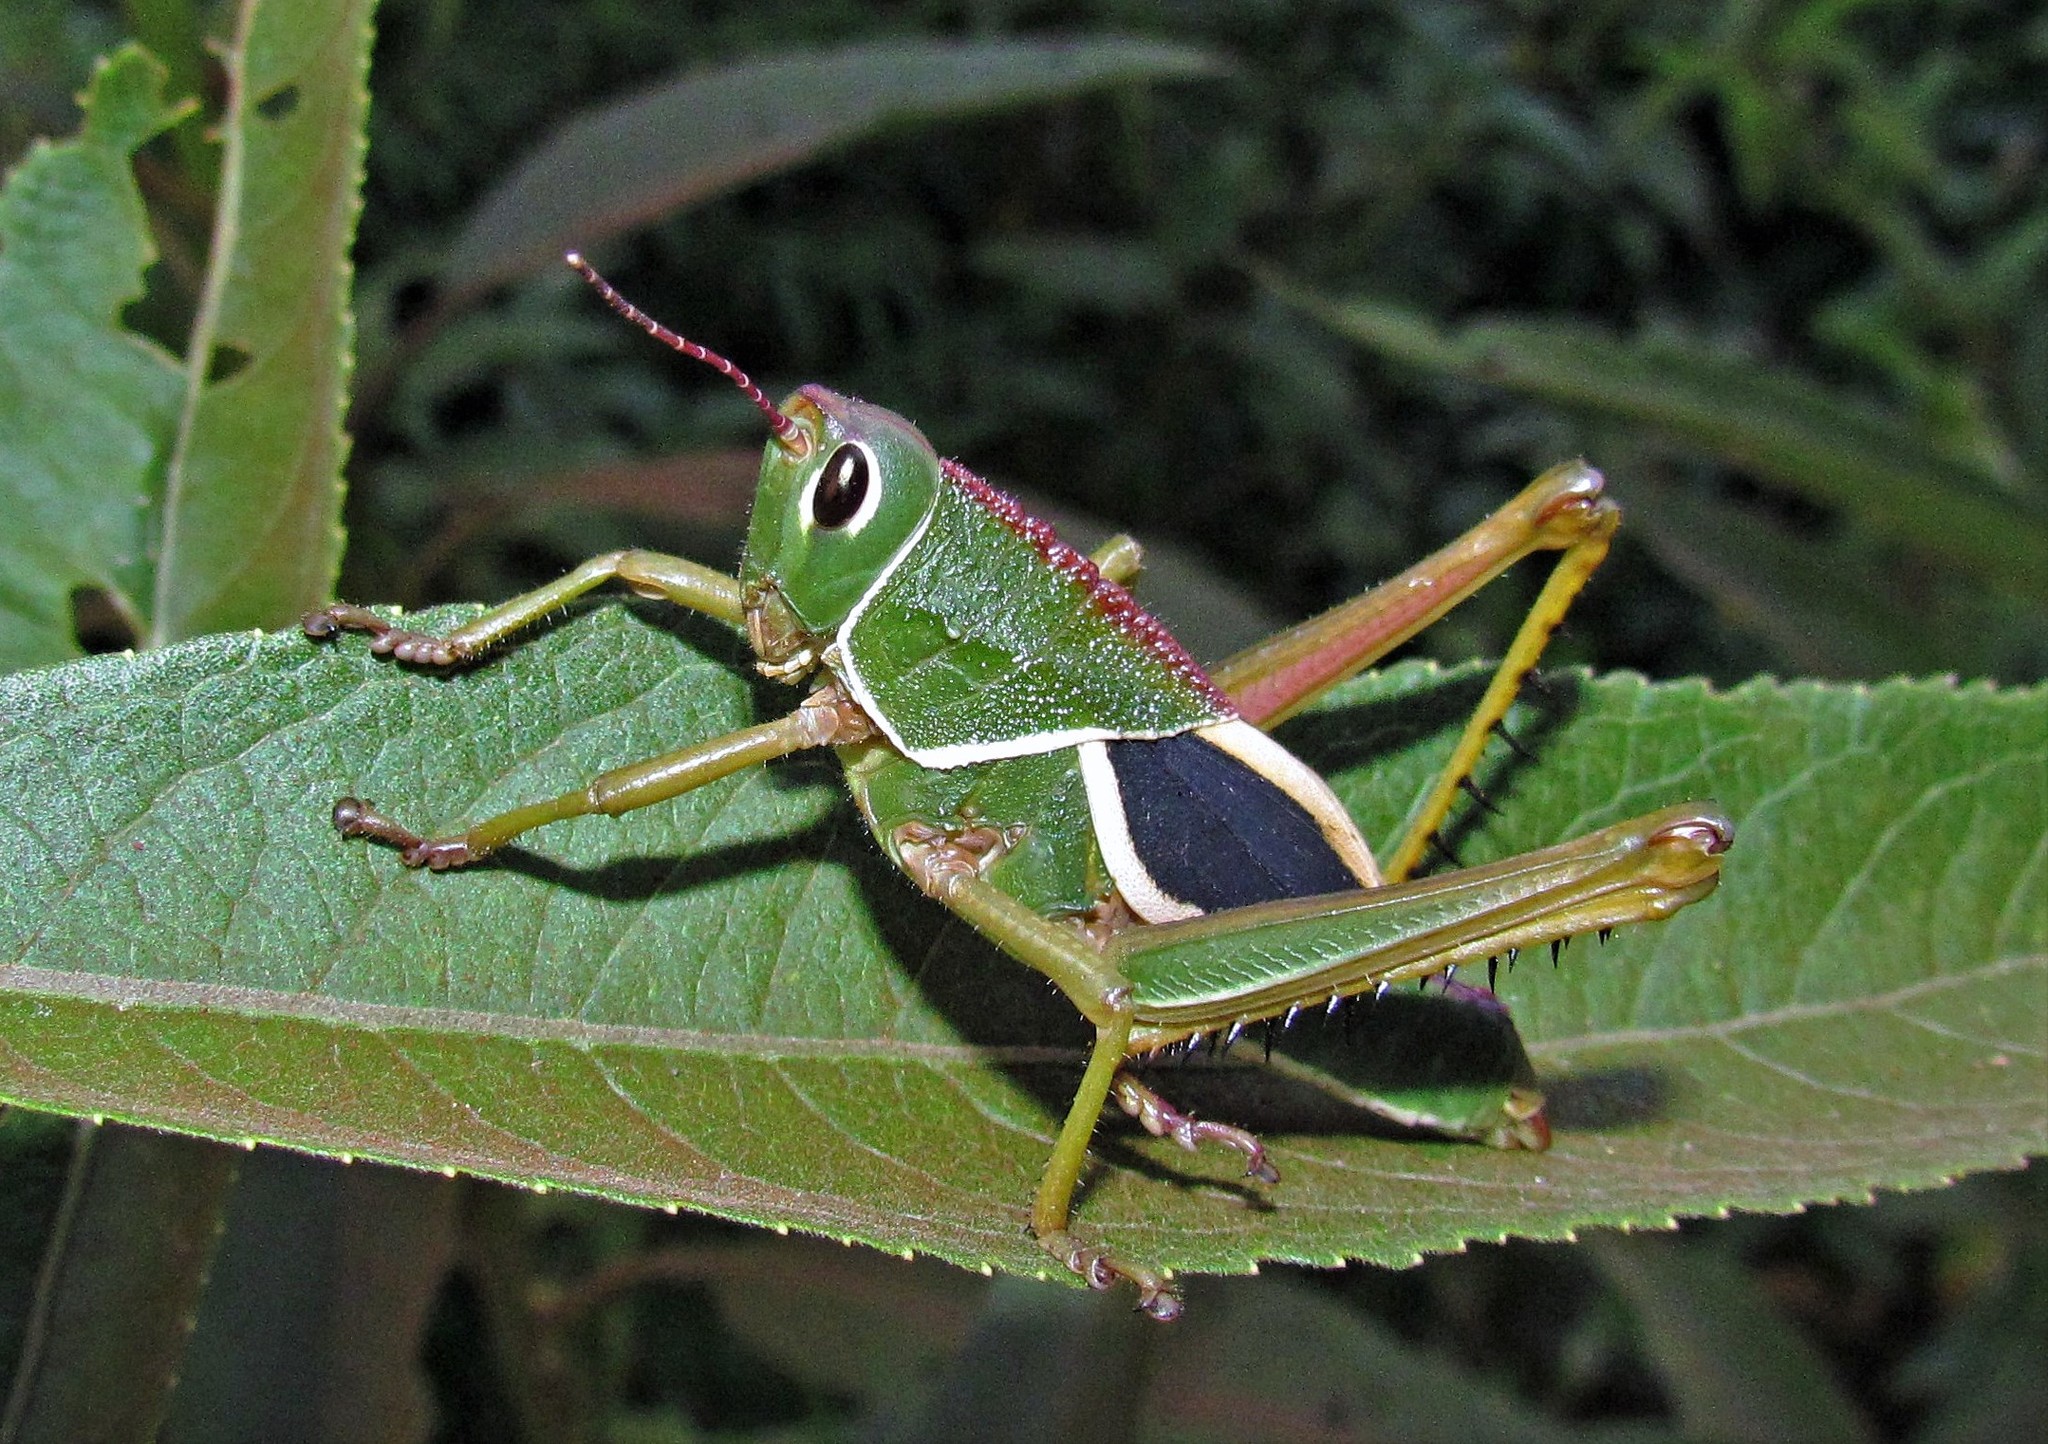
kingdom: Animalia
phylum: Arthropoda
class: Insecta
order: Orthoptera
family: Romaleidae
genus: Staleochlora
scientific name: Staleochlora arcuata
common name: Paraná purple-backed grasshopper
